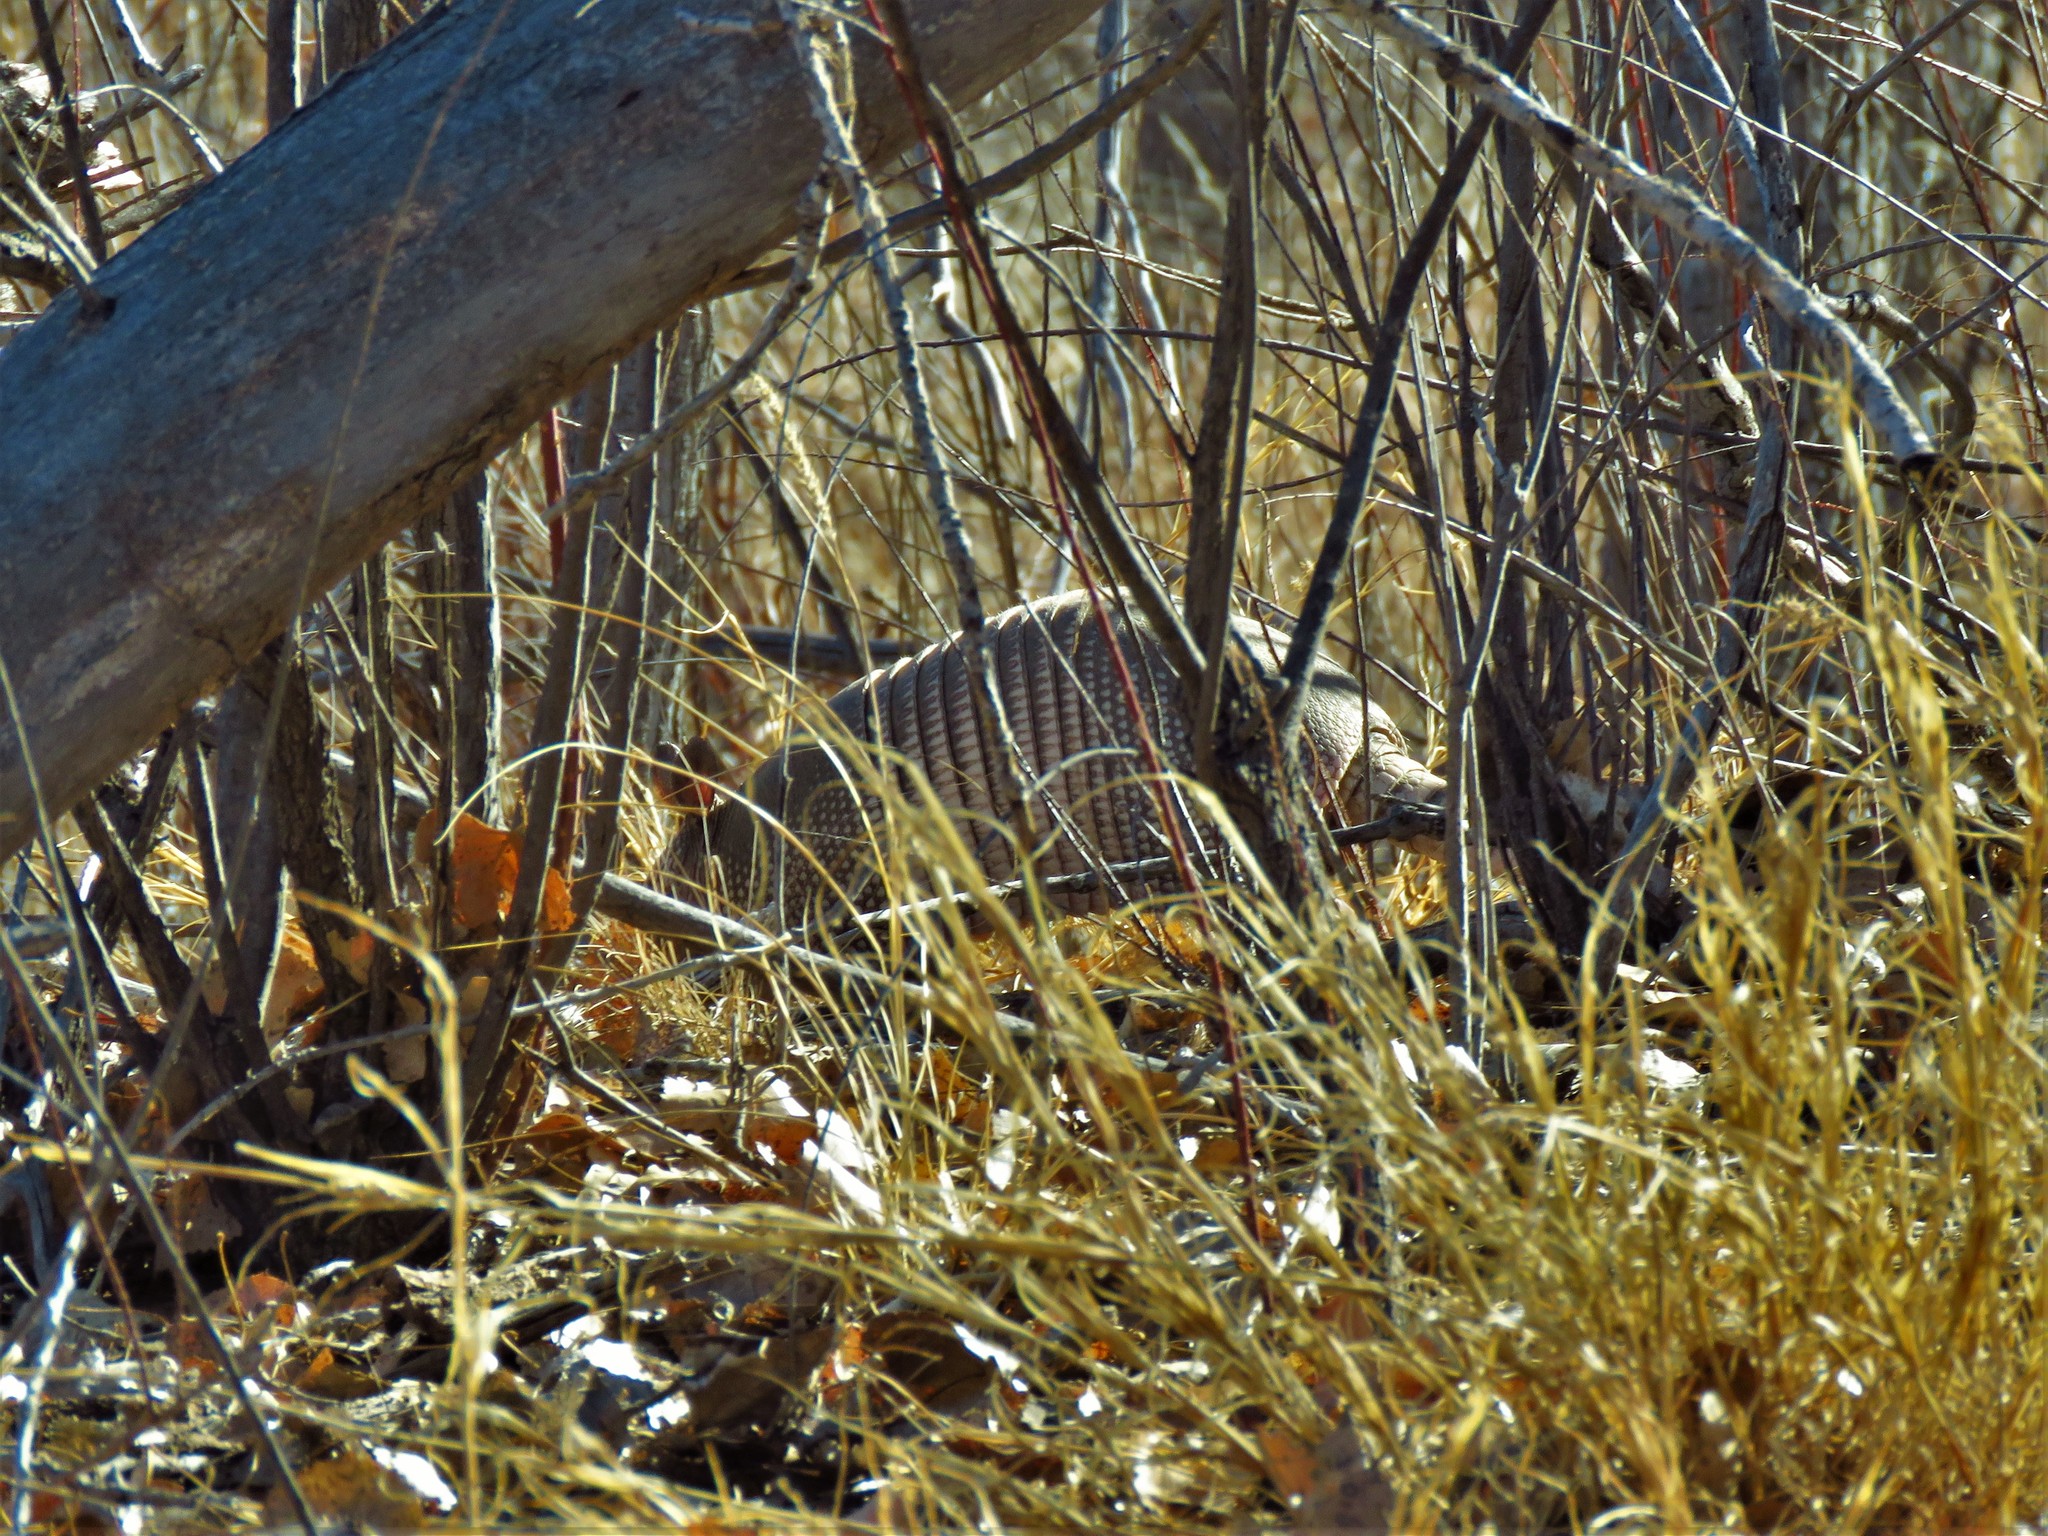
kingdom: Animalia
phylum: Chordata
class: Mammalia
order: Cingulata
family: Dasypodidae
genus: Dasypus
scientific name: Dasypus novemcinctus
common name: Nine-banded armadillo
